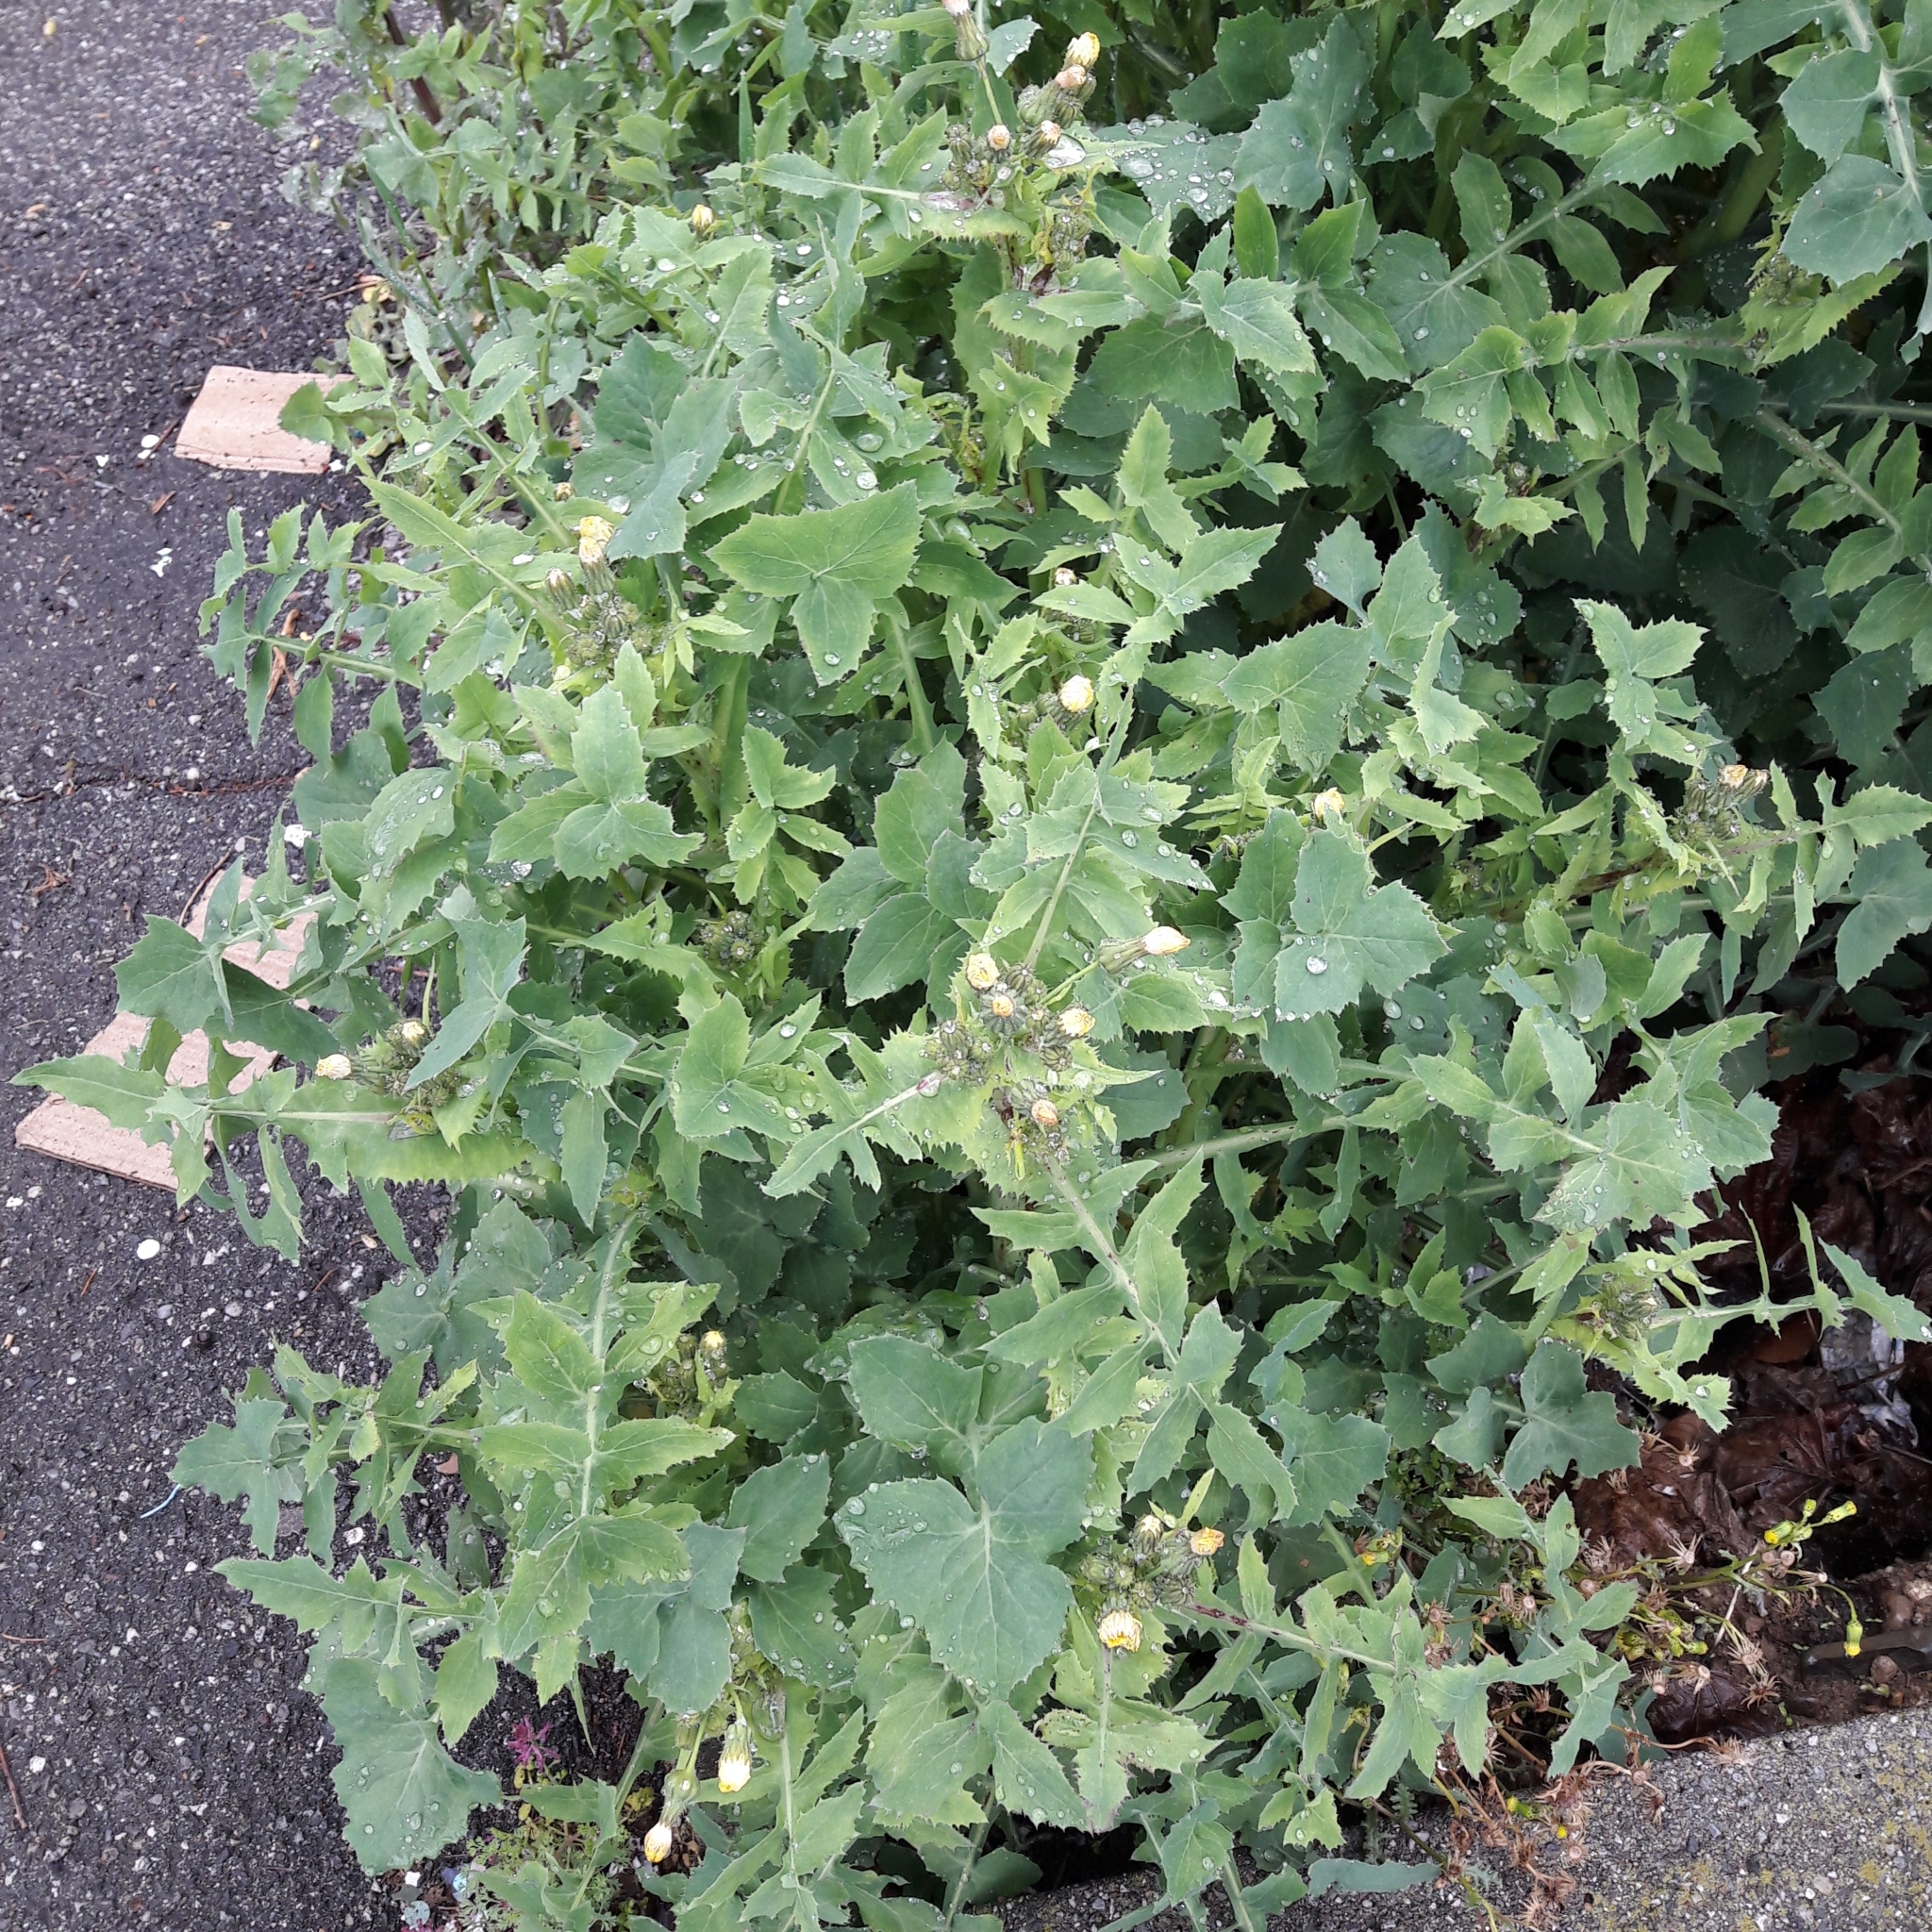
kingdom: Plantae
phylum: Tracheophyta
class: Magnoliopsida
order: Asterales
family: Asteraceae
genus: Sonchus
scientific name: Sonchus oleraceus
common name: Common sowthistle
